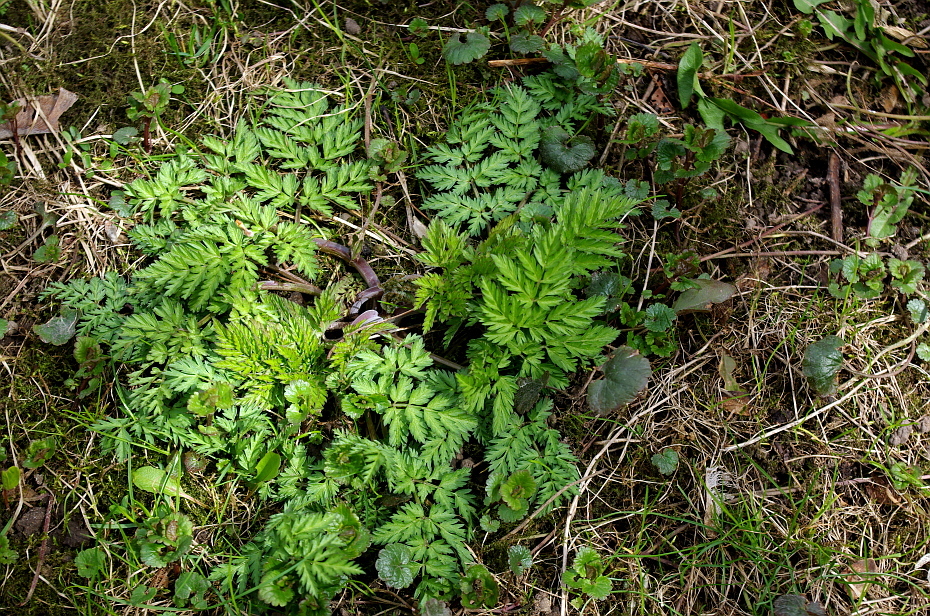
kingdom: Plantae
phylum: Tracheophyta
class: Magnoliopsida
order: Apiales
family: Apiaceae
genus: Anthriscus
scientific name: Anthriscus sylvestris
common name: Cow parsley
